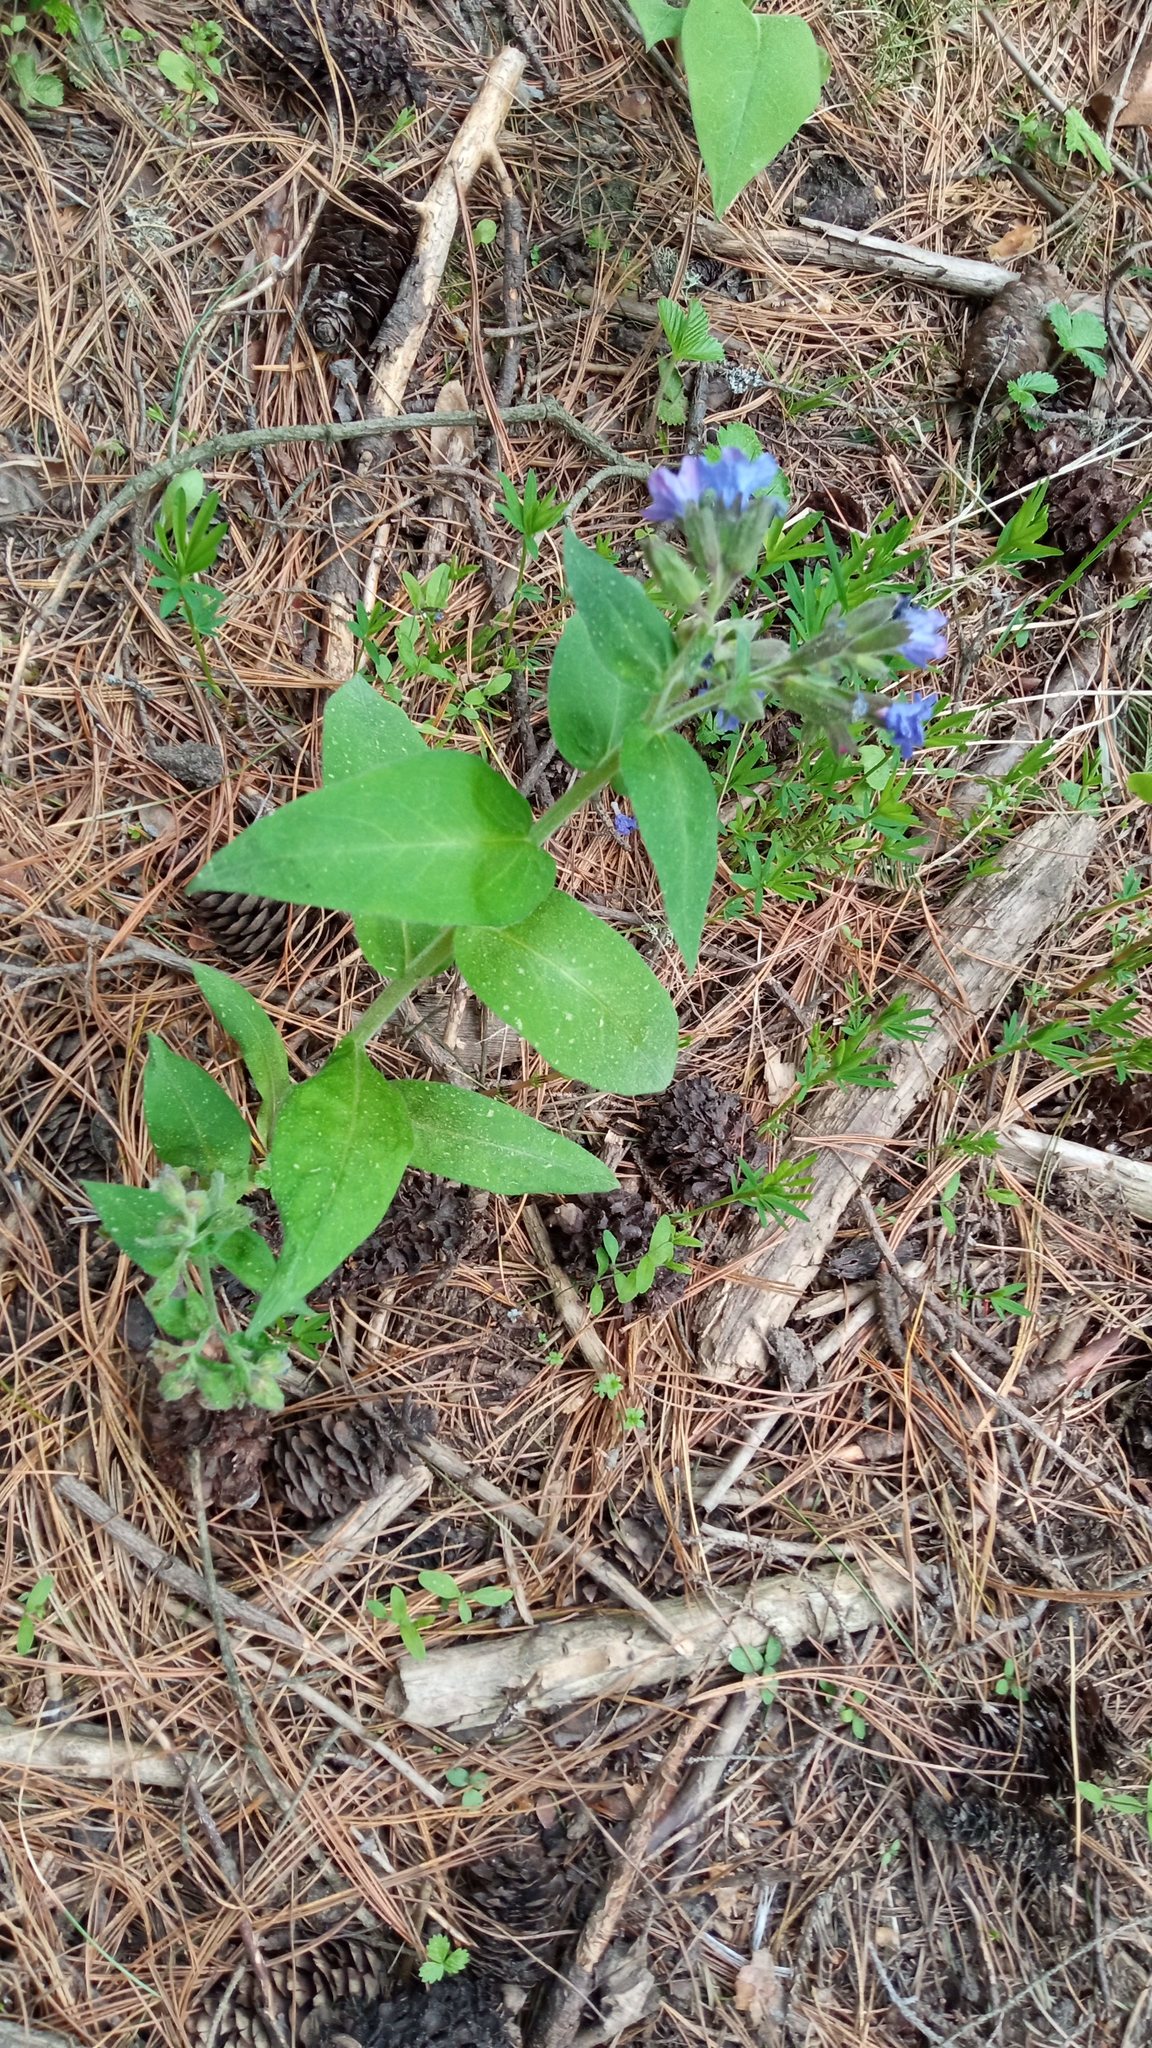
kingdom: Plantae
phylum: Tracheophyta
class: Magnoliopsida
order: Boraginales
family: Boraginaceae
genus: Pulmonaria
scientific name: Pulmonaria mollis
